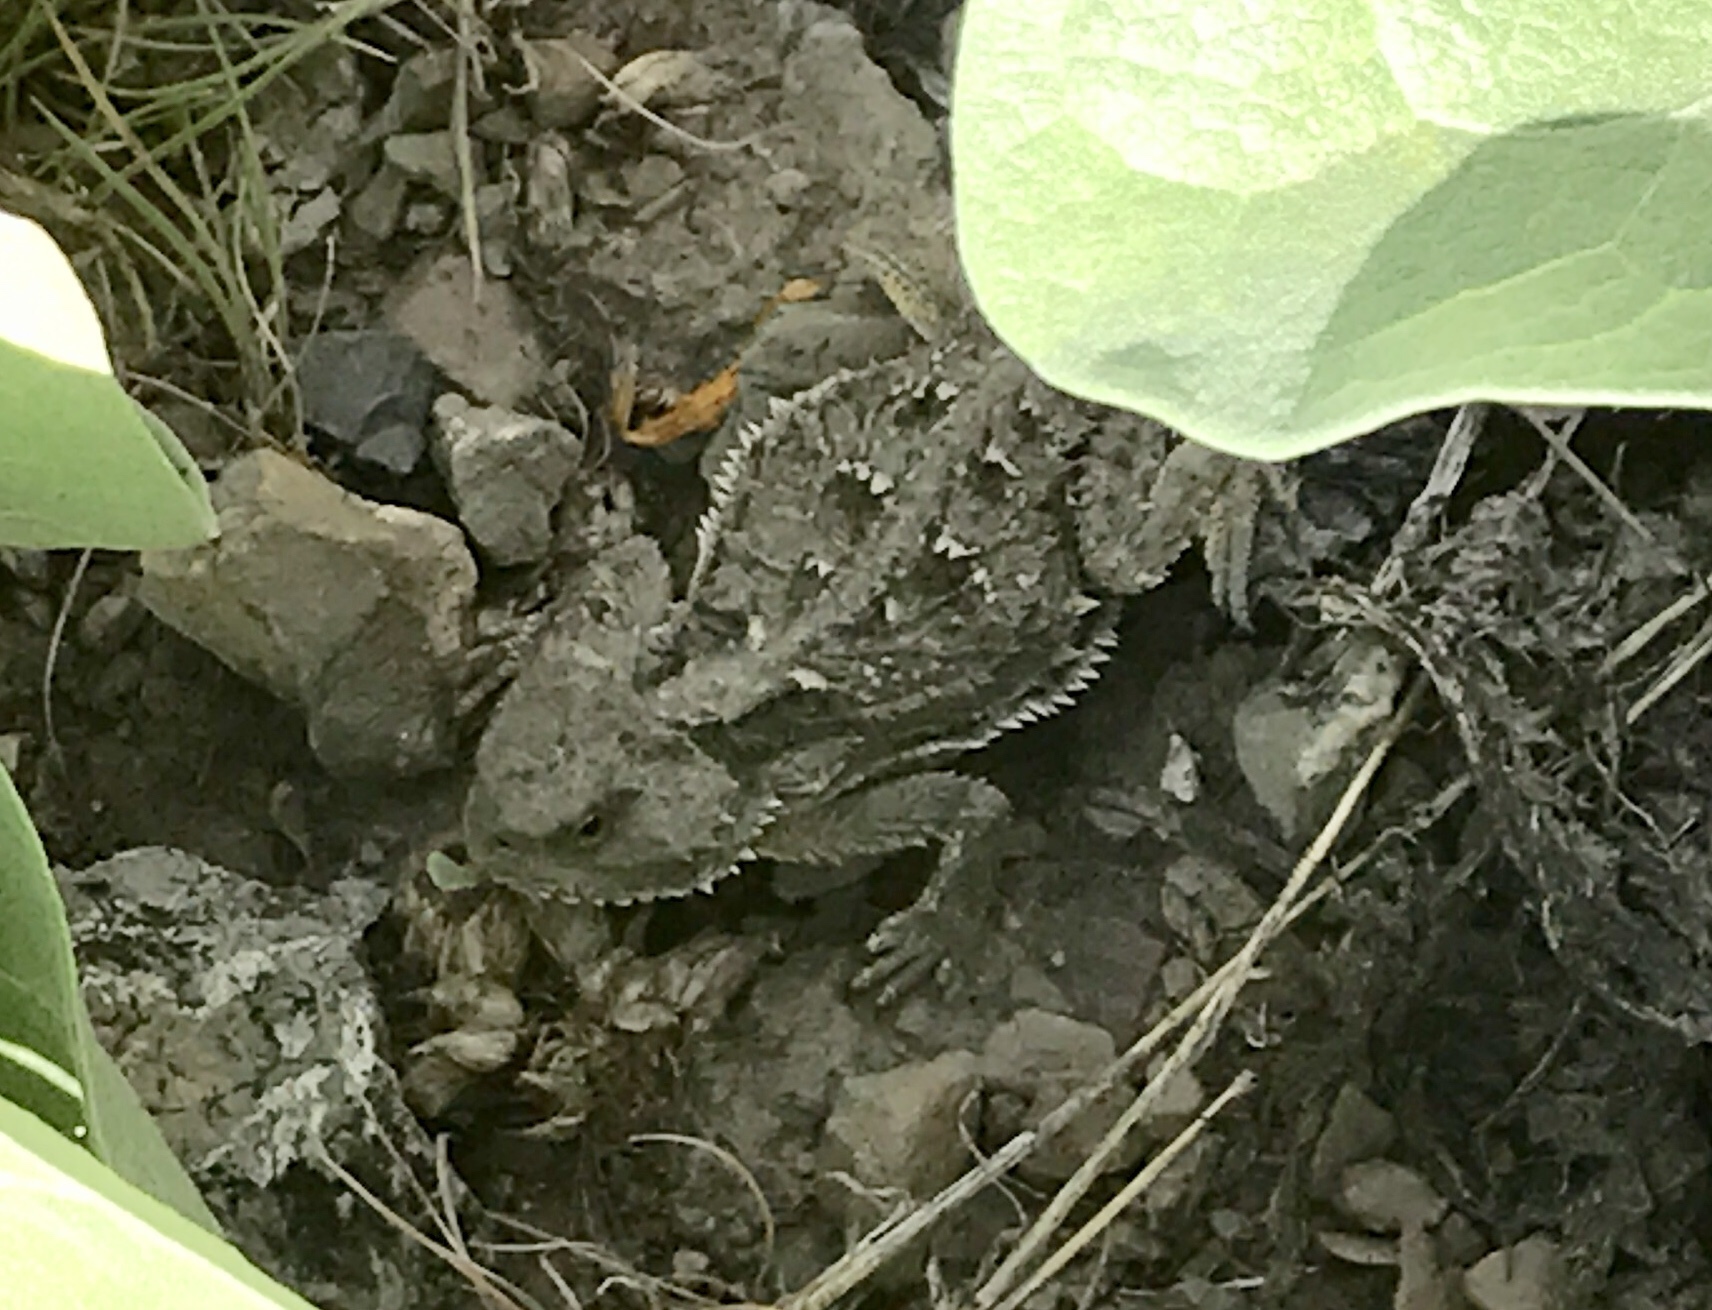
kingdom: Animalia
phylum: Chordata
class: Squamata
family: Phrynosomatidae
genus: Phrynosoma
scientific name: Phrynosoma hernandesi
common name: Greater short-horned lizard
